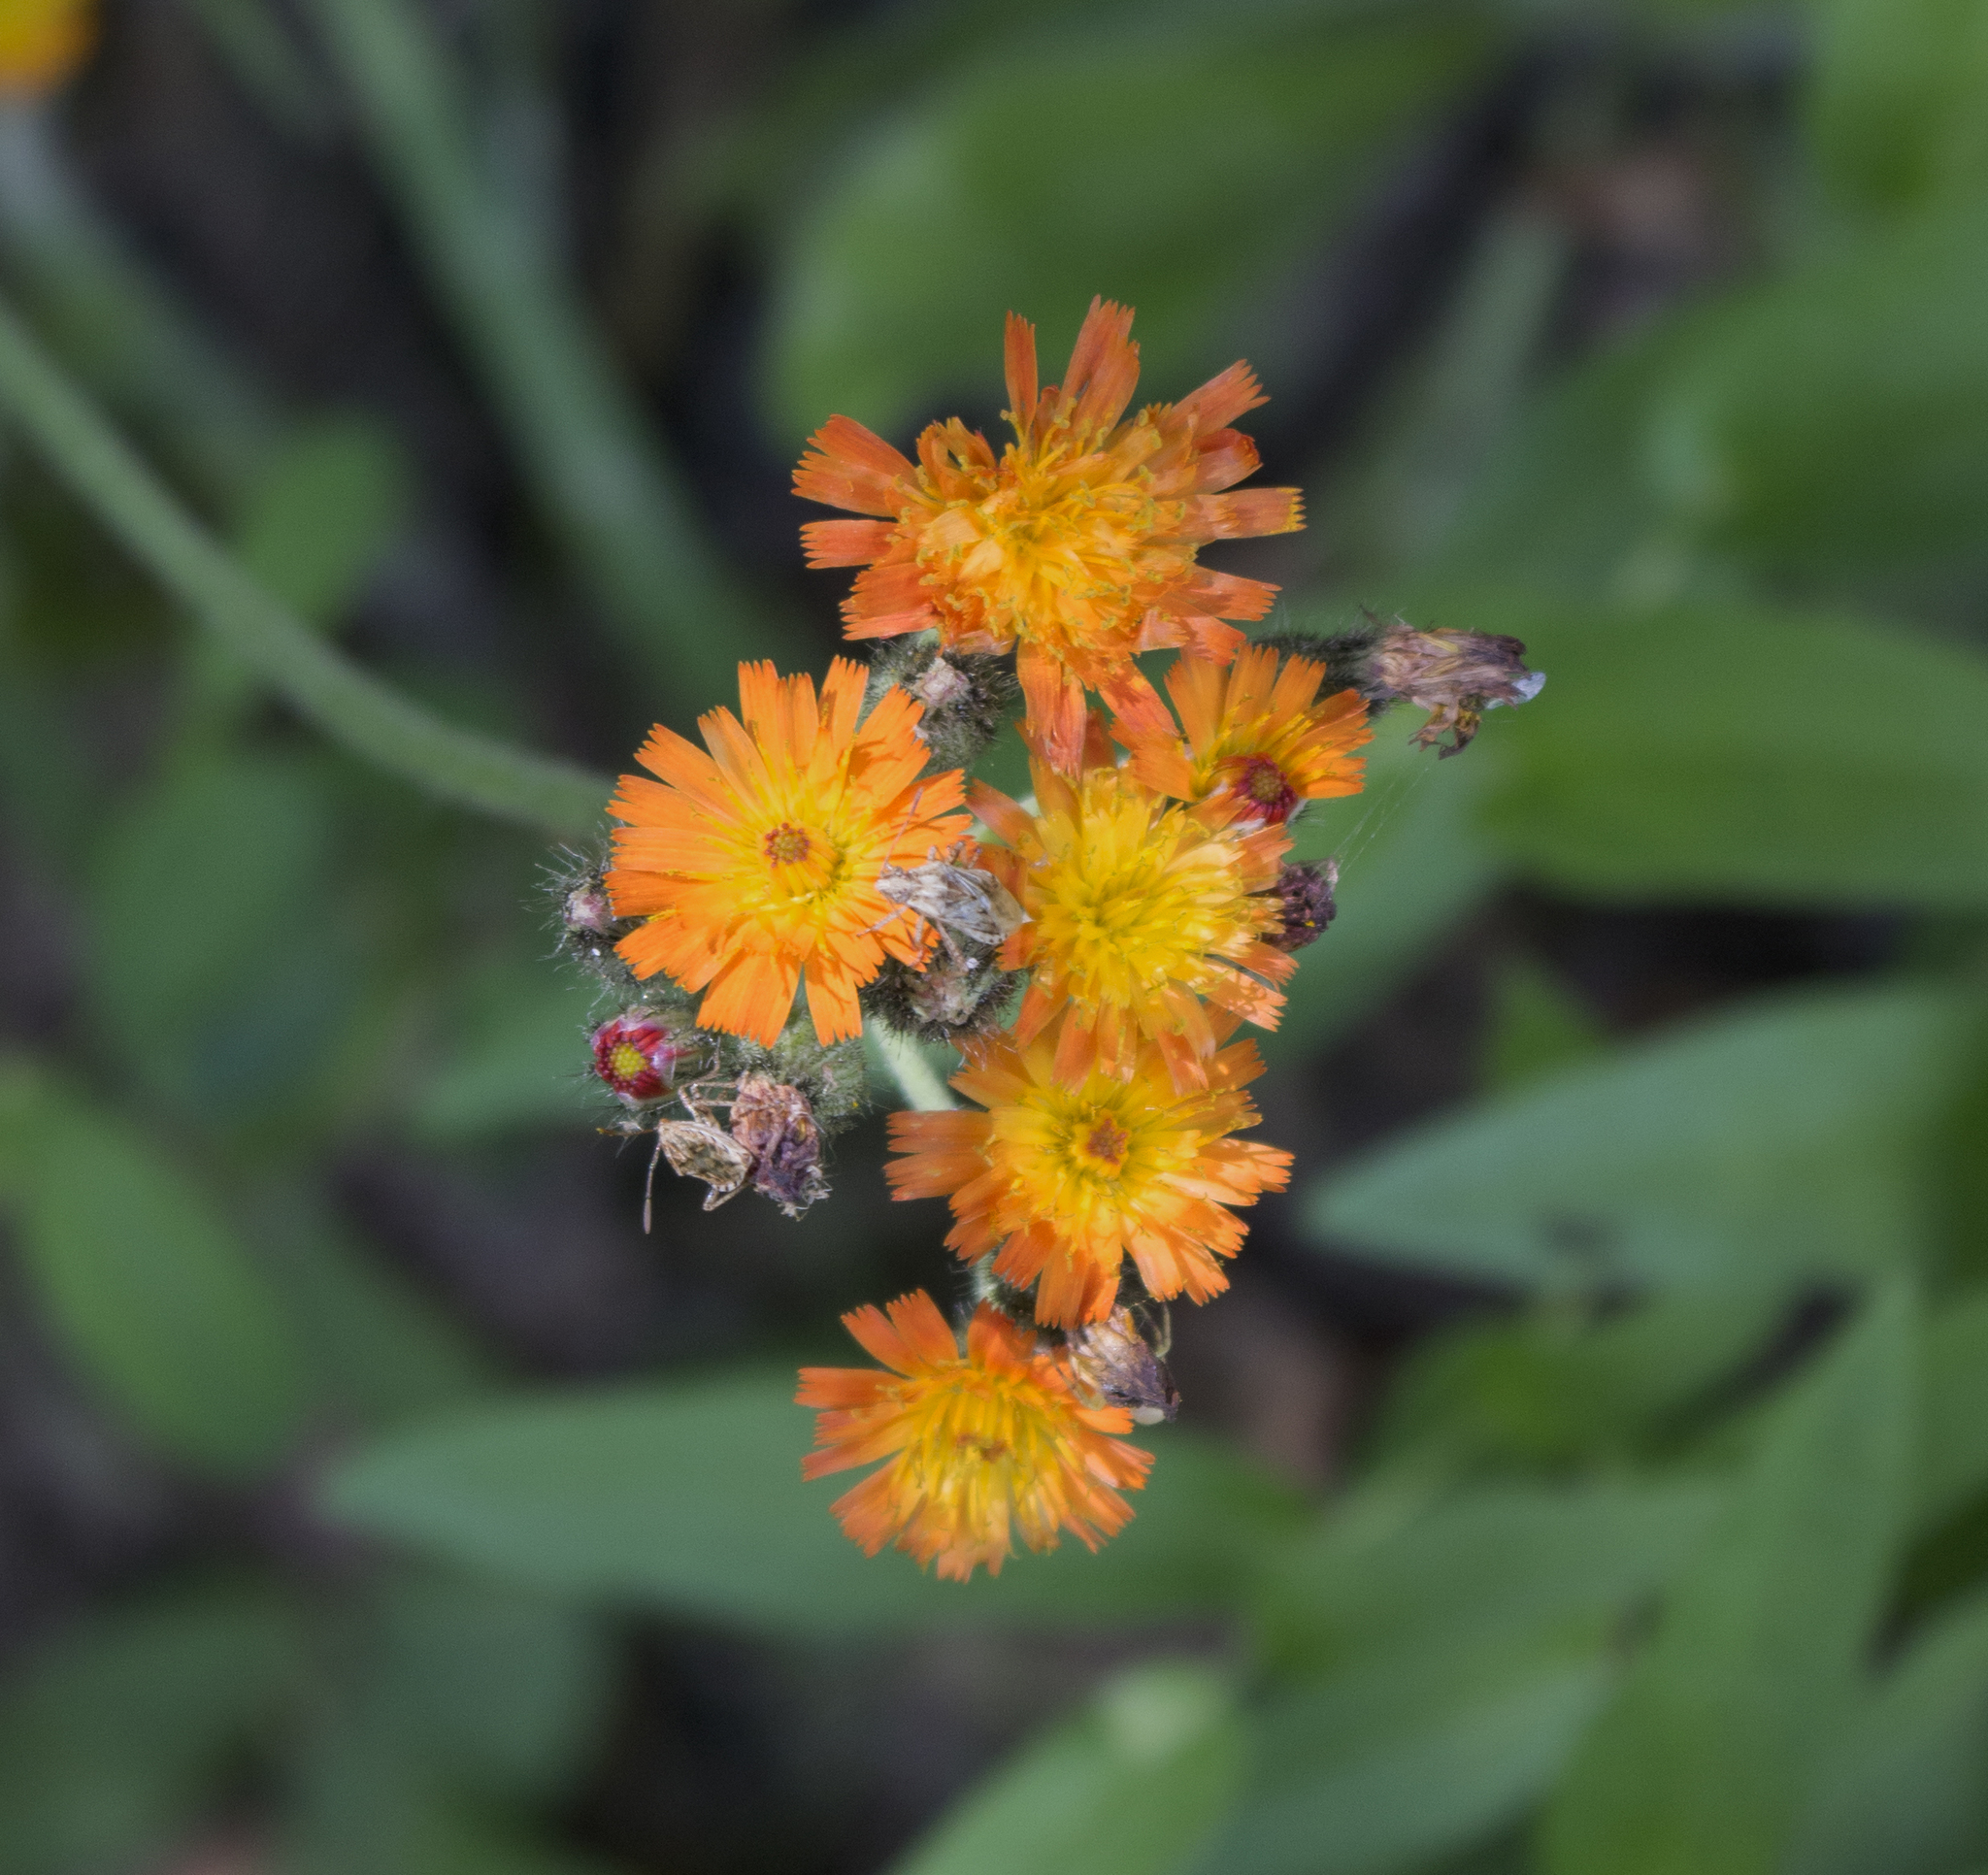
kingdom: Plantae
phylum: Tracheophyta
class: Magnoliopsida
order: Asterales
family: Asteraceae
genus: Pilosella
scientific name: Pilosella aurantiaca
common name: Fox-and-cubs
